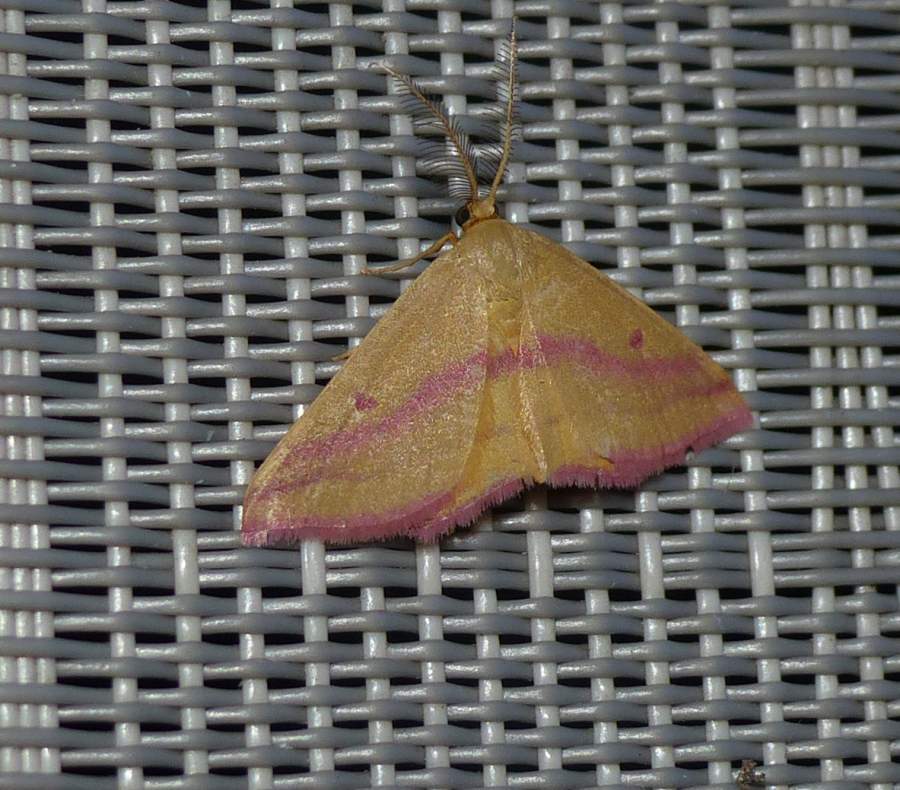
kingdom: Animalia
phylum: Arthropoda
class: Insecta
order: Lepidoptera
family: Geometridae
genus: Haematopis
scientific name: Haematopis grataria
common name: Chickweed geometer
